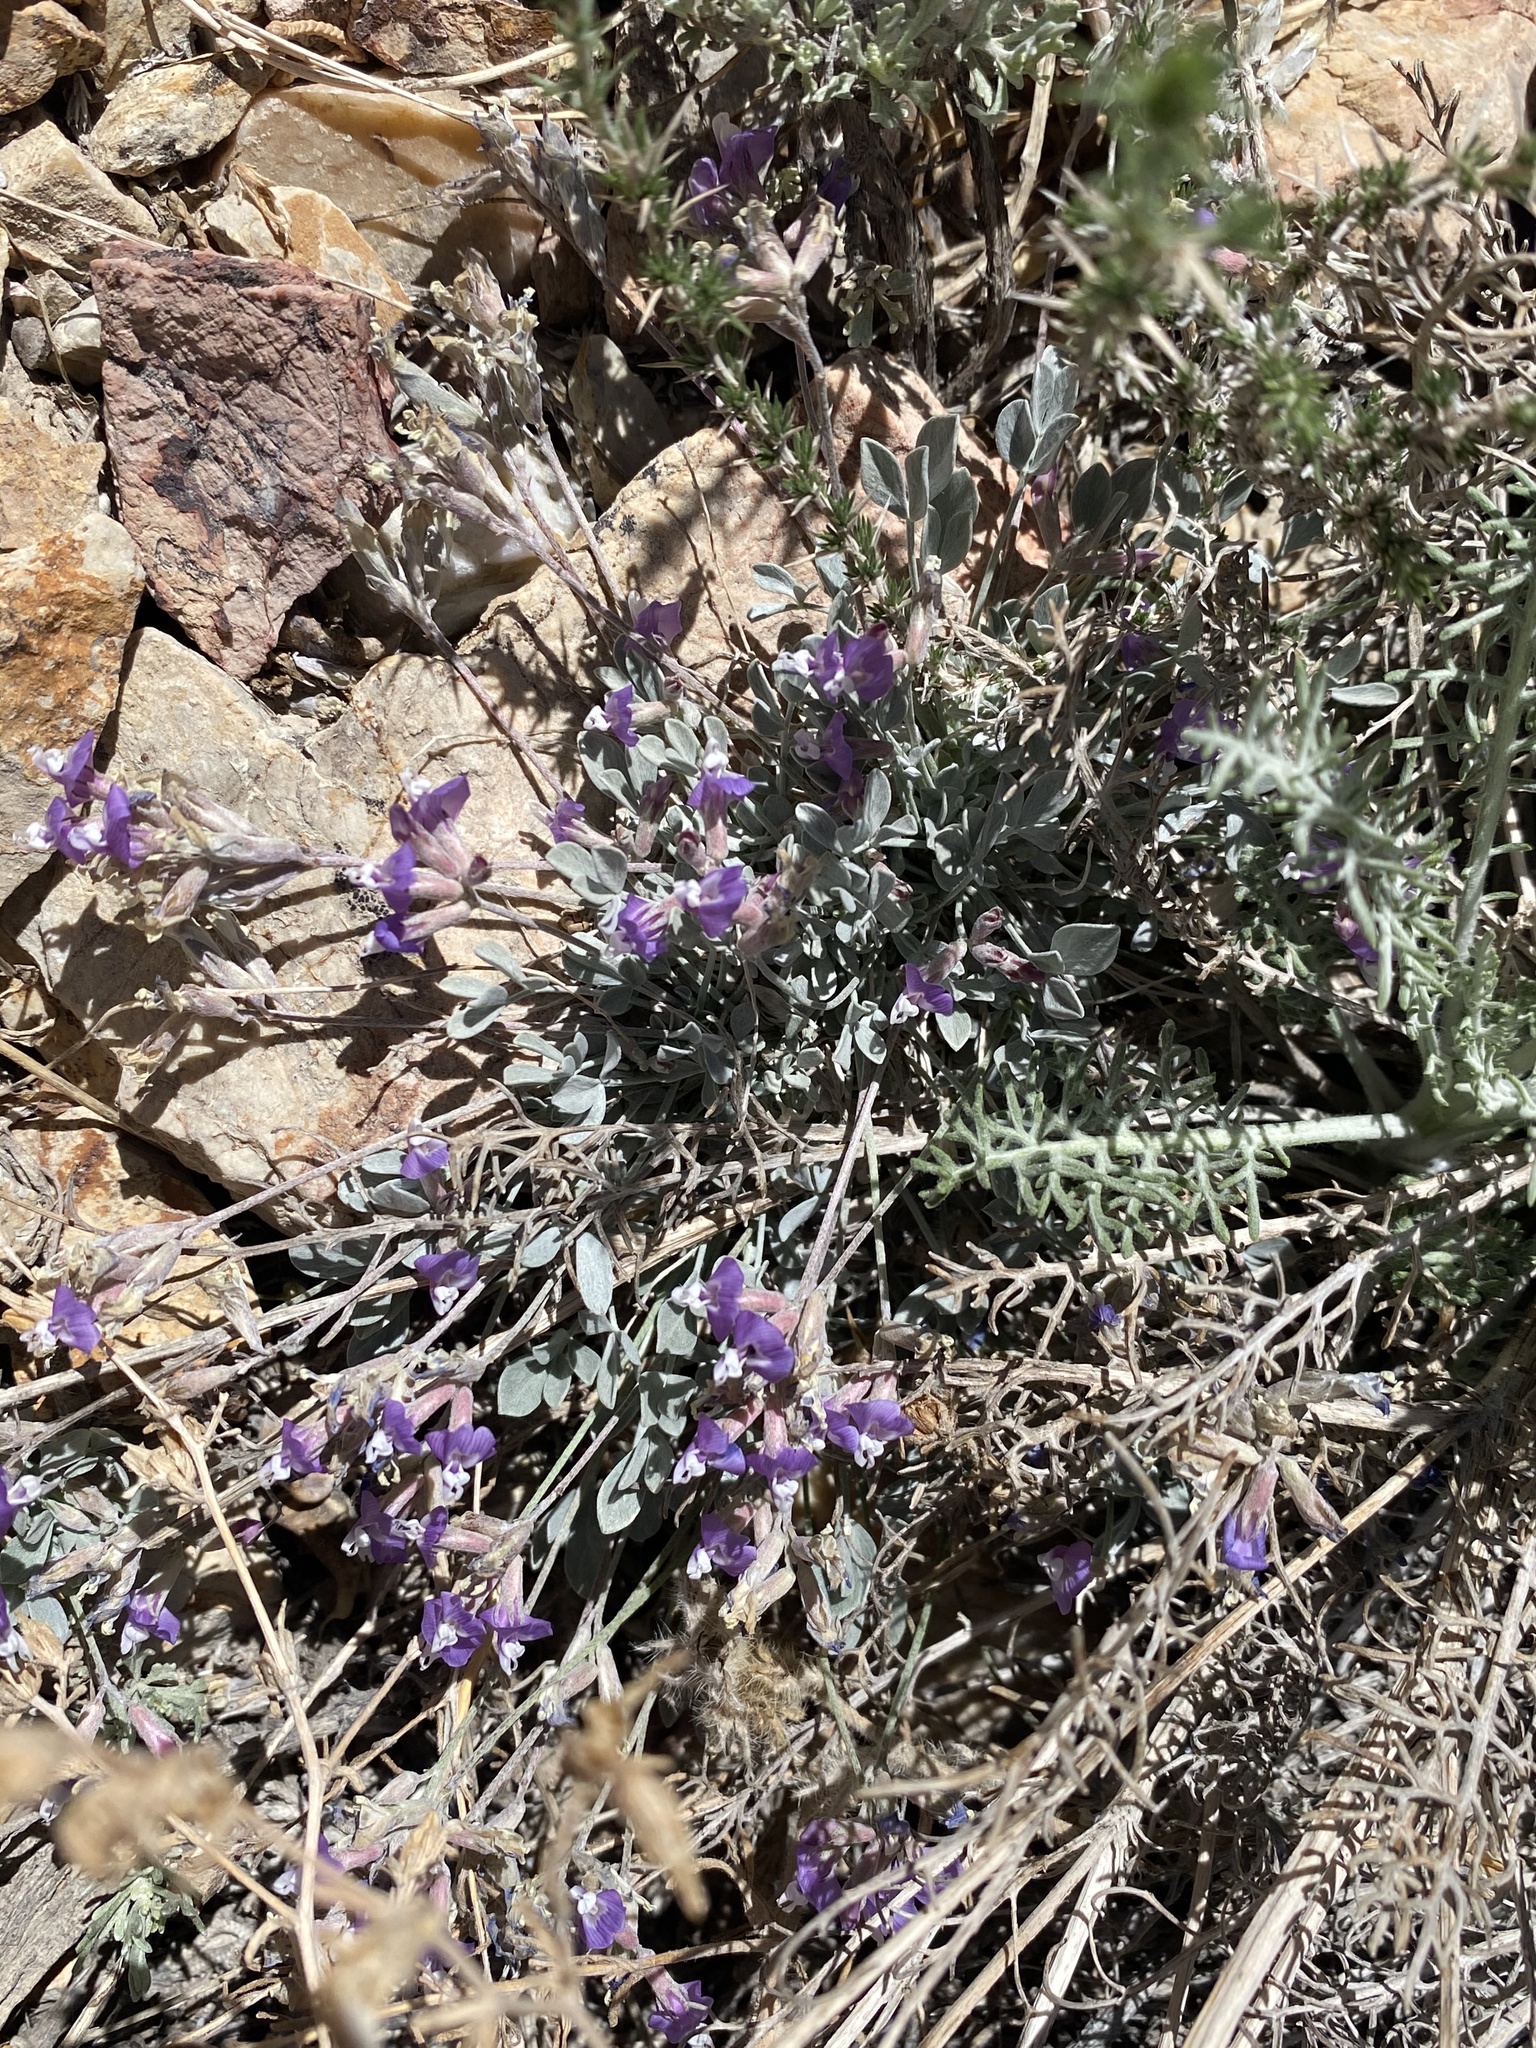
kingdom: Plantae
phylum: Tracheophyta
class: Magnoliopsida
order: Fabales
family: Fabaceae
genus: Astragalus
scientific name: Astragalus calycosus
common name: King's milkvetch
